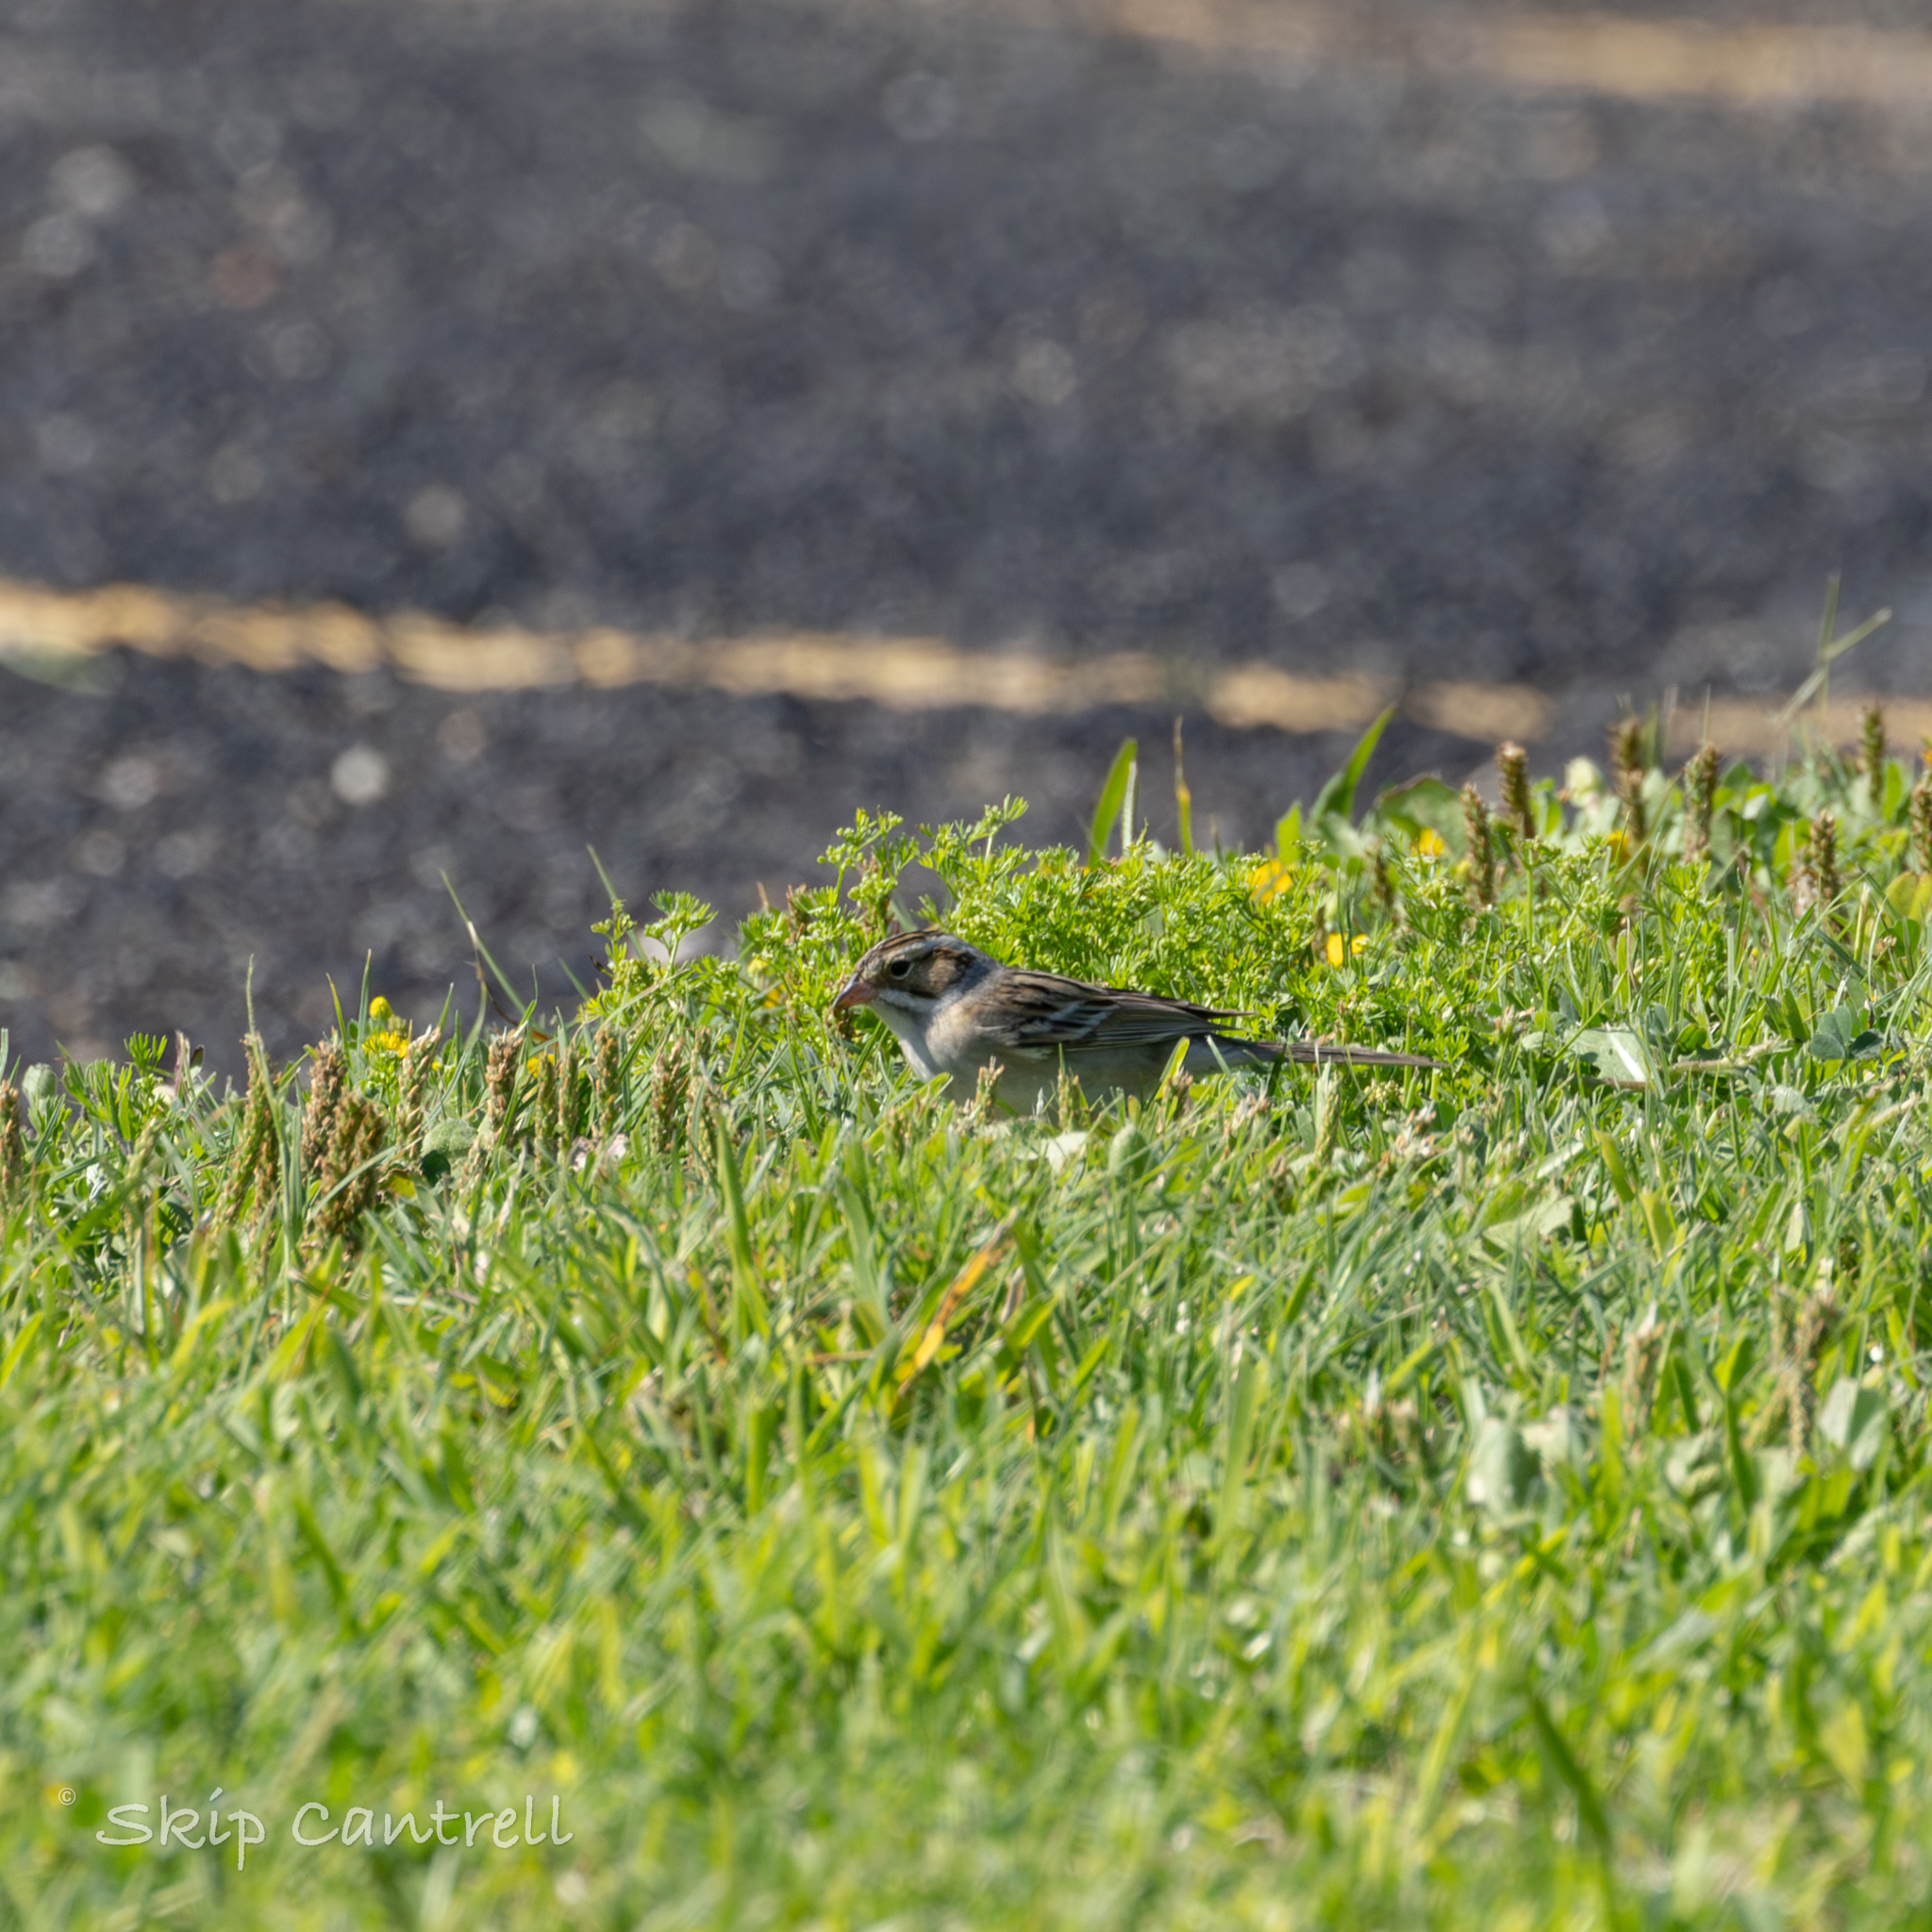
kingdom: Animalia
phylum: Chordata
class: Aves
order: Passeriformes
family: Passerellidae
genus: Spizella
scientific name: Spizella pallida
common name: Clay-colored sparrow
